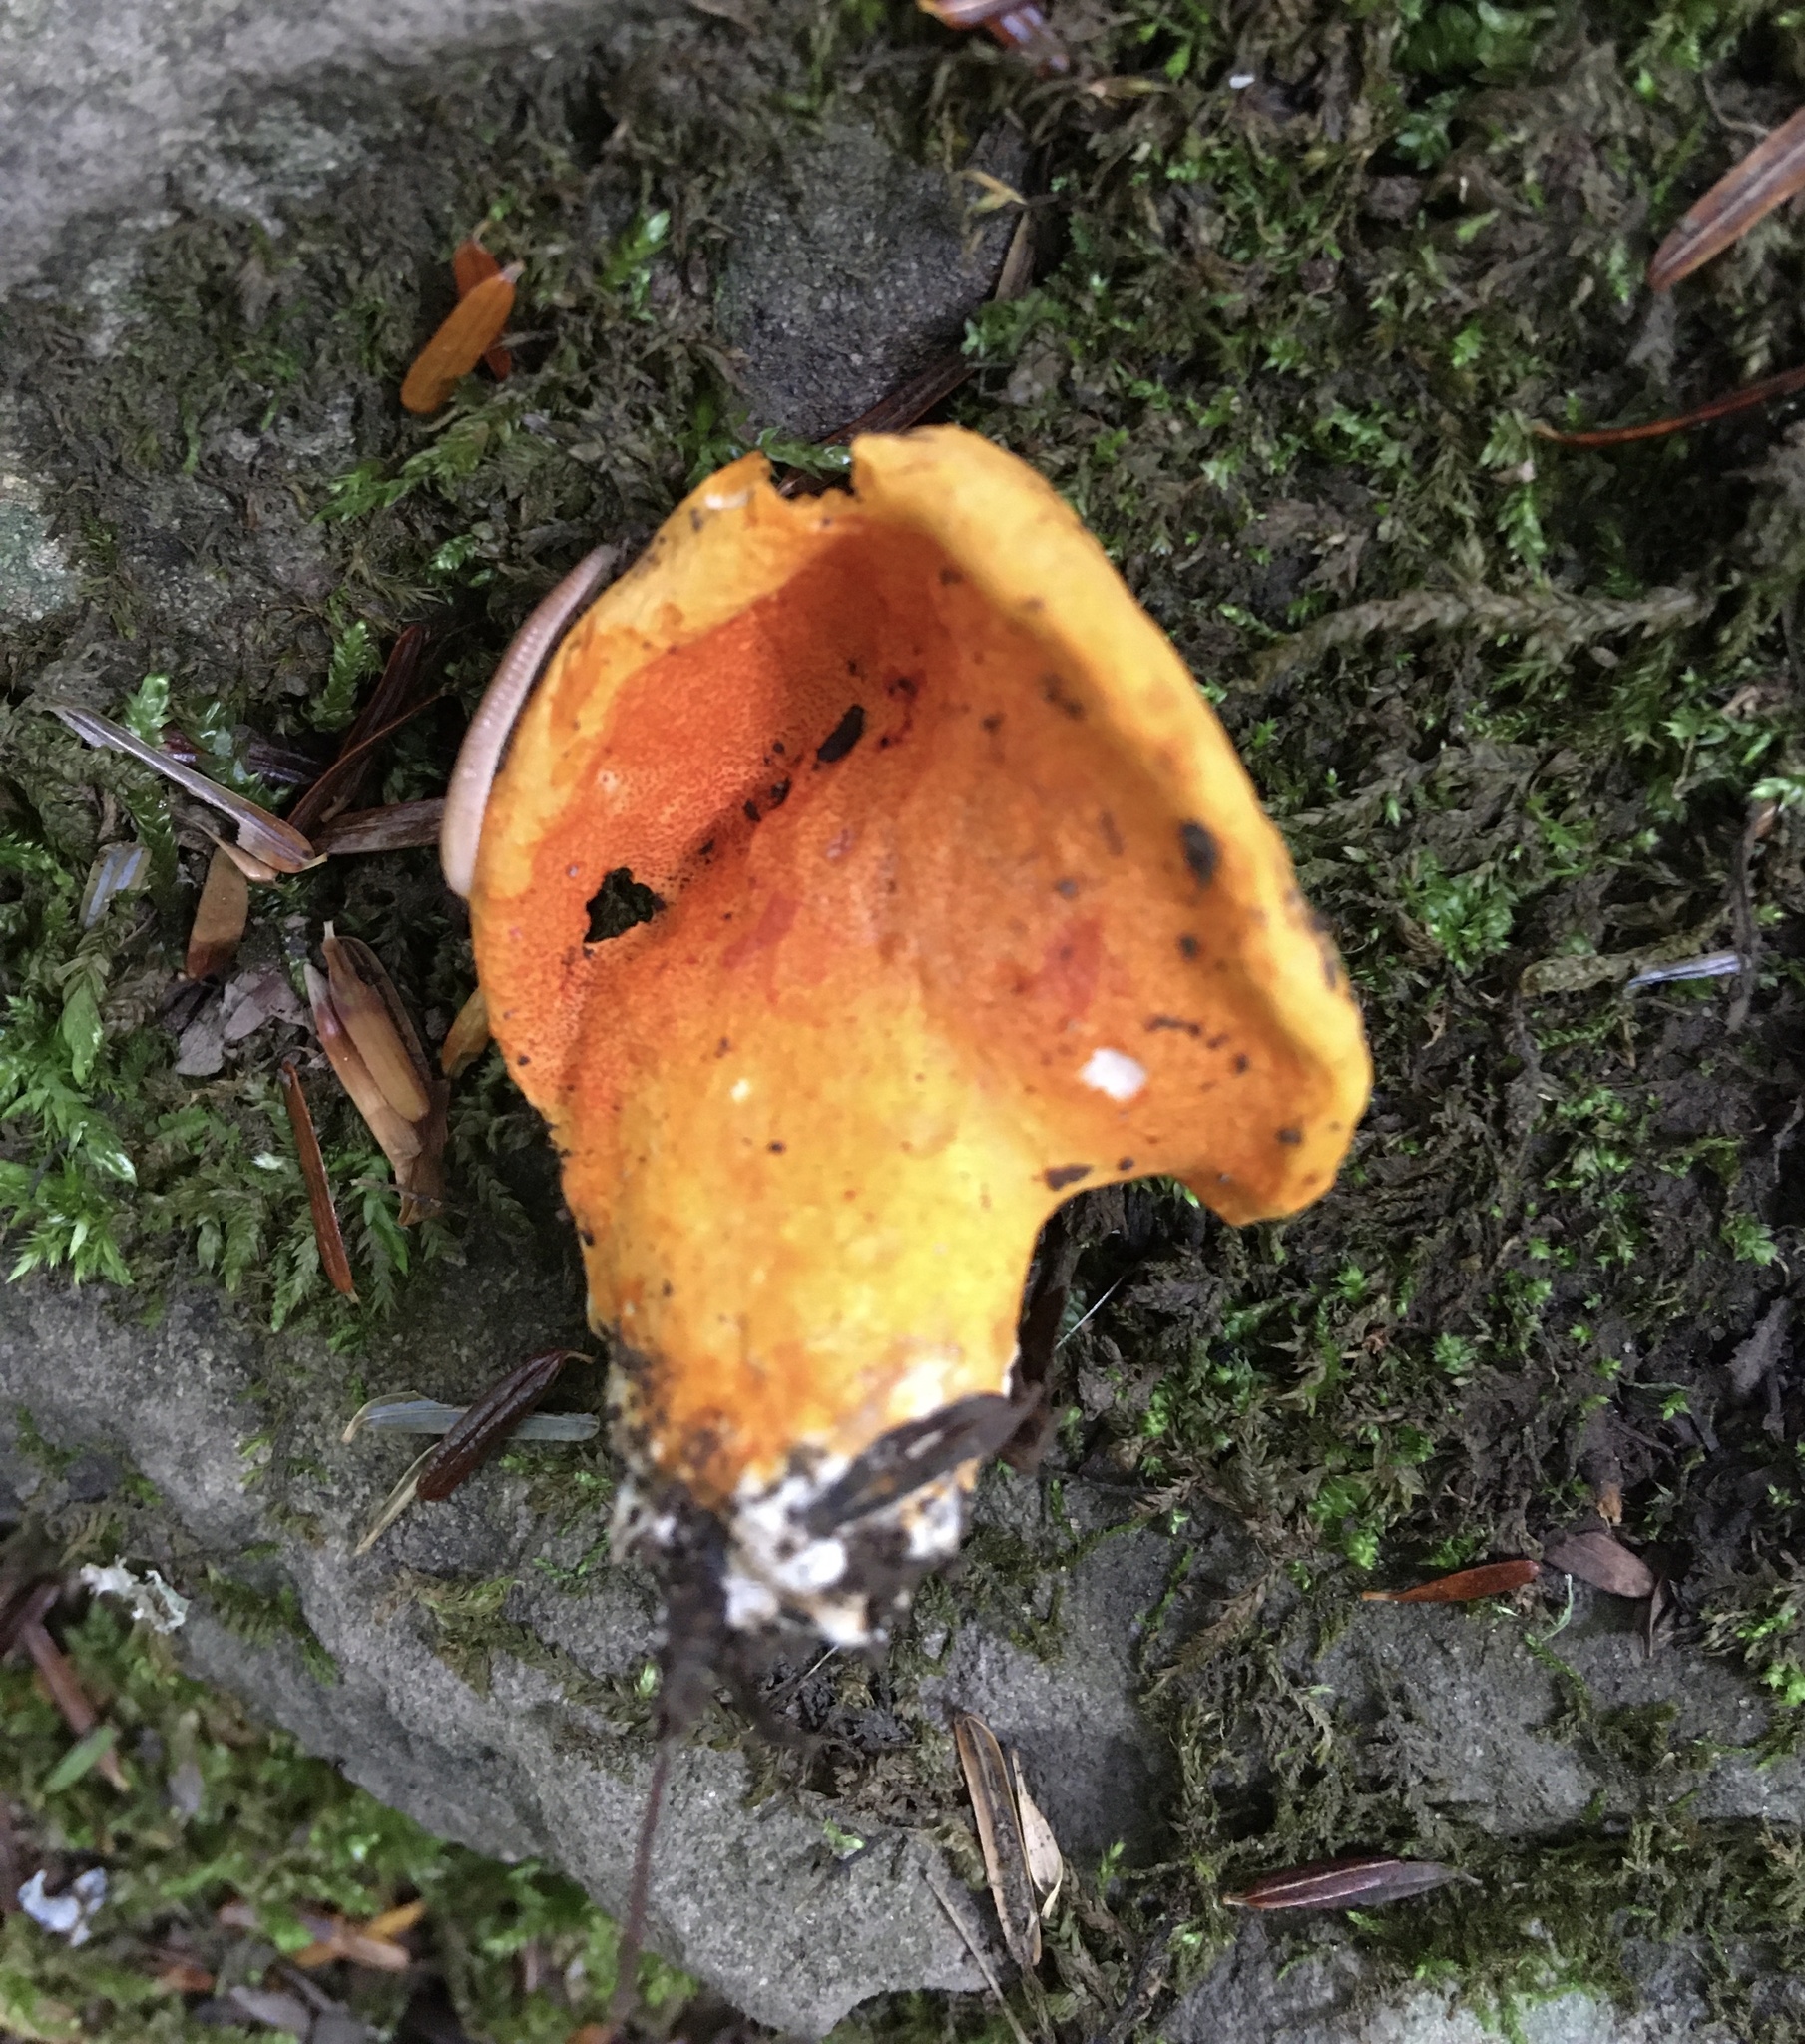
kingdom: Fungi
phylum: Ascomycota
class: Sordariomycetes
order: Hypocreales
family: Hypocreaceae
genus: Hypomyces
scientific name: Hypomyces lactifluorum
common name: Lobster mushroom
